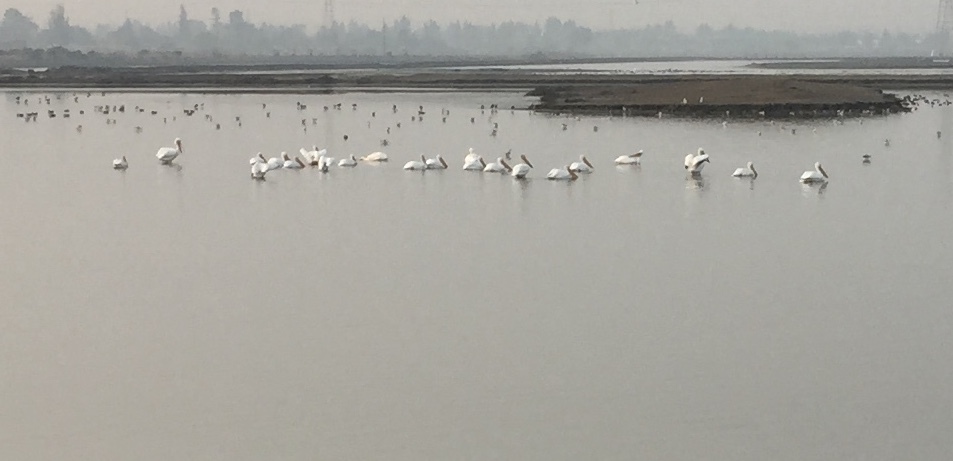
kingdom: Animalia
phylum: Chordata
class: Aves
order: Pelecaniformes
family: Pelecanidae
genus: Pelecanus
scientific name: Pelecanus erythrorhynchos
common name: American white pelican
